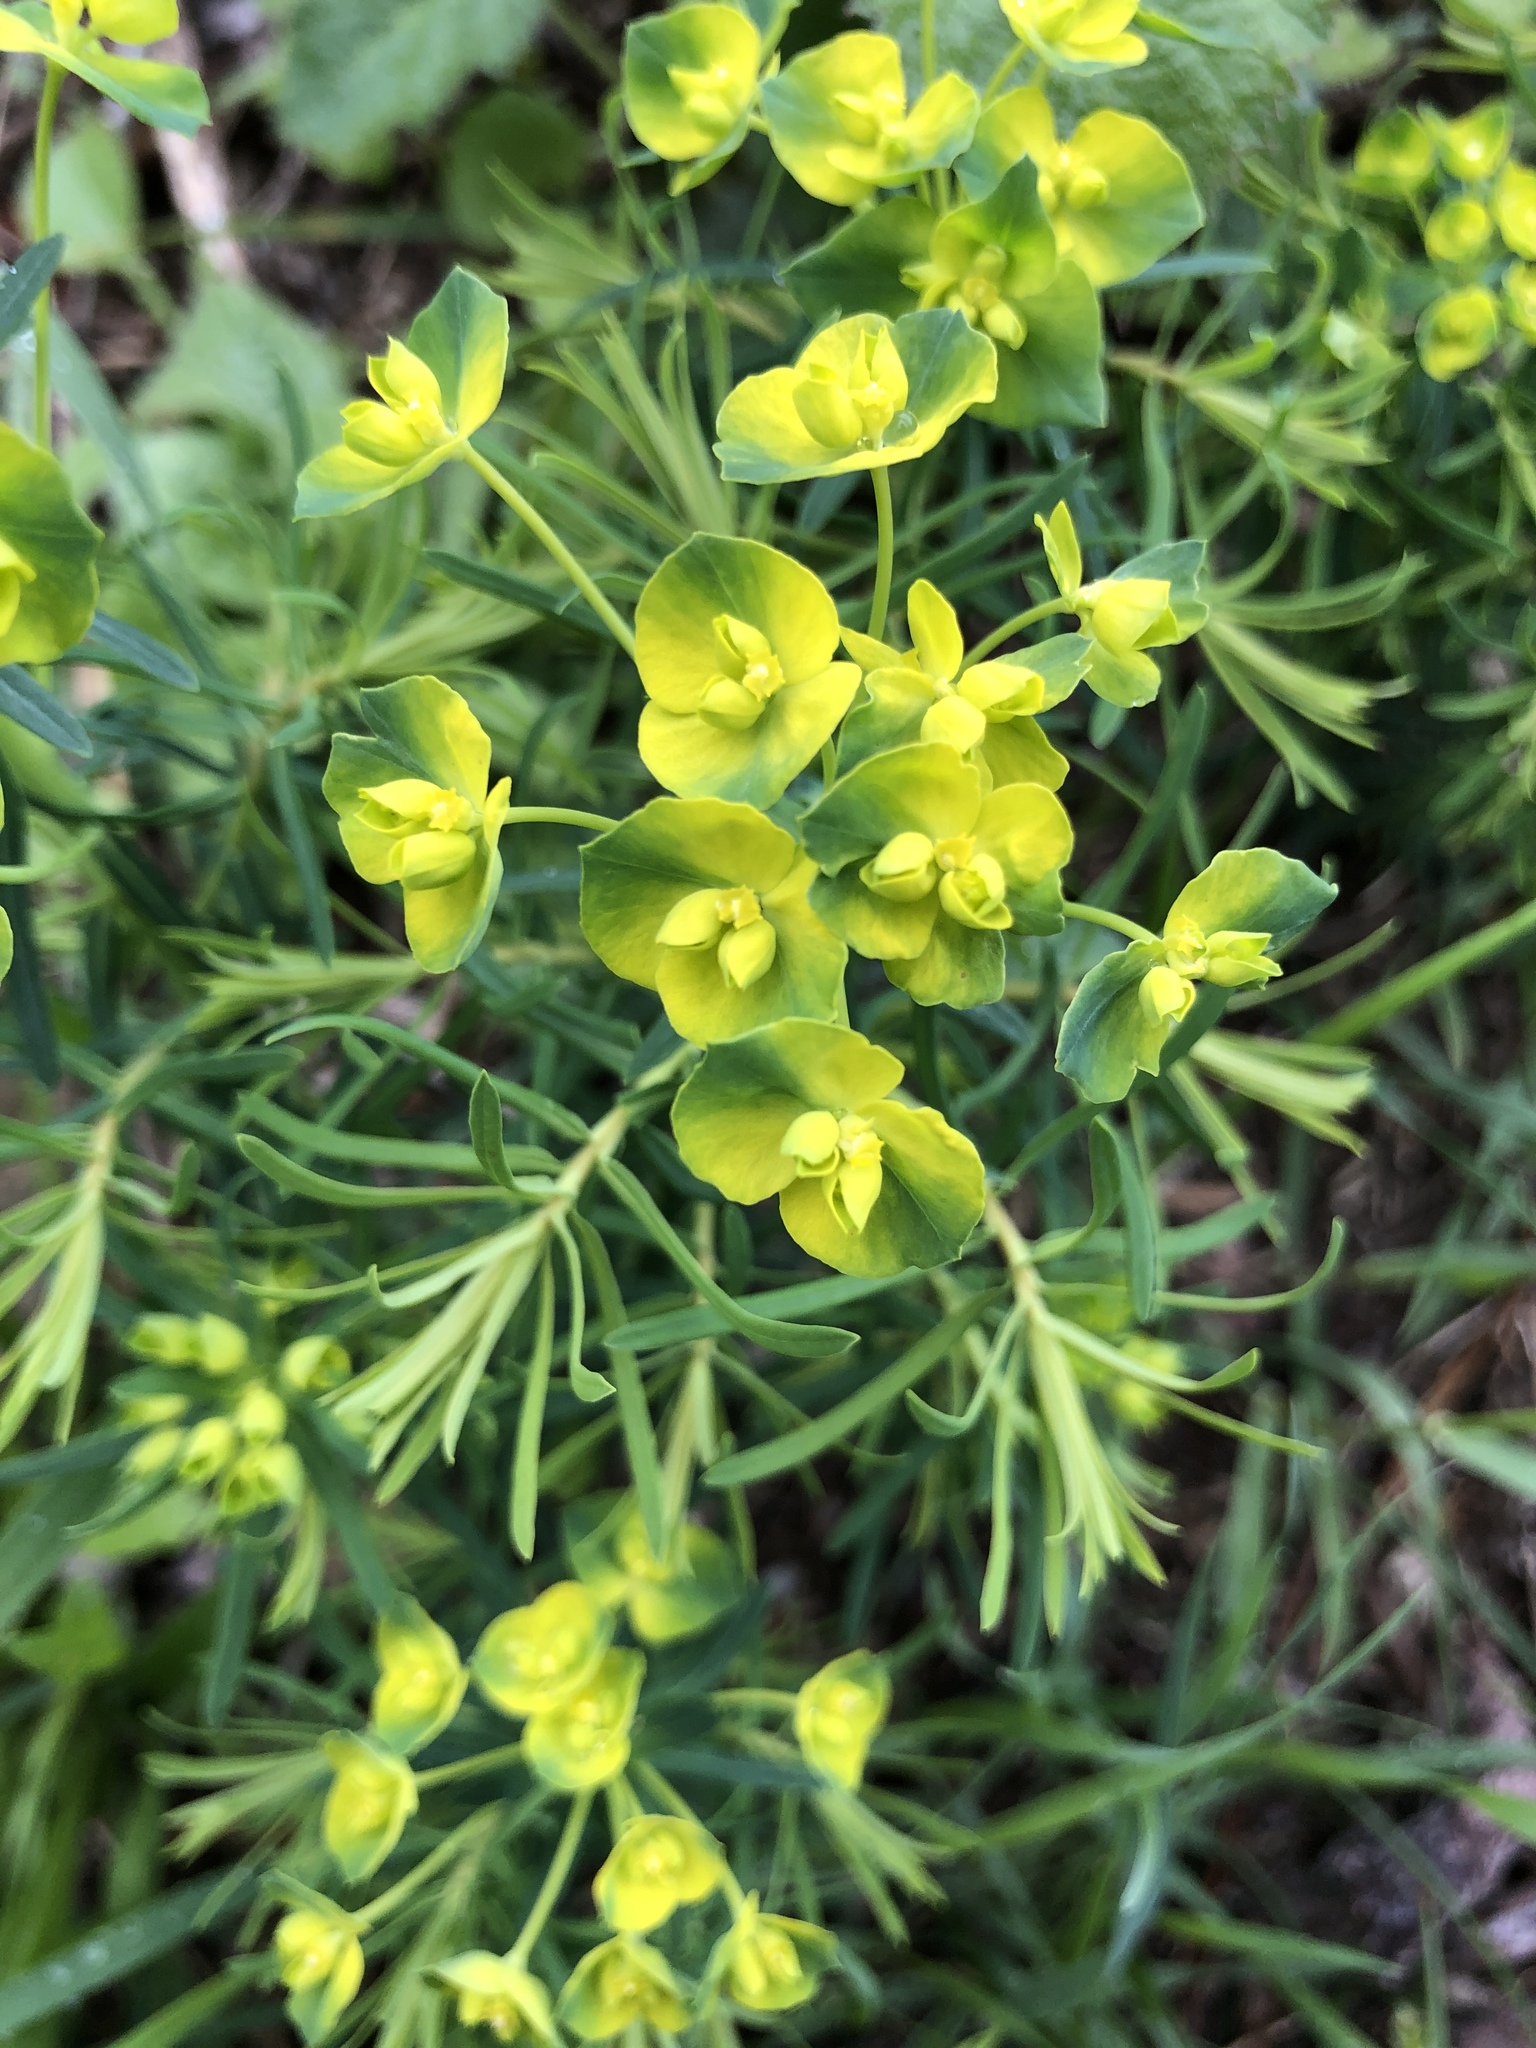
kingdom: Plantae
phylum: Tracheophyta
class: Magnoliopsida
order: Malpighiales
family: Euphorbiaceae
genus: Euphorbia
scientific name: Euphorbia cyparissias
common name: Cypress spurge
